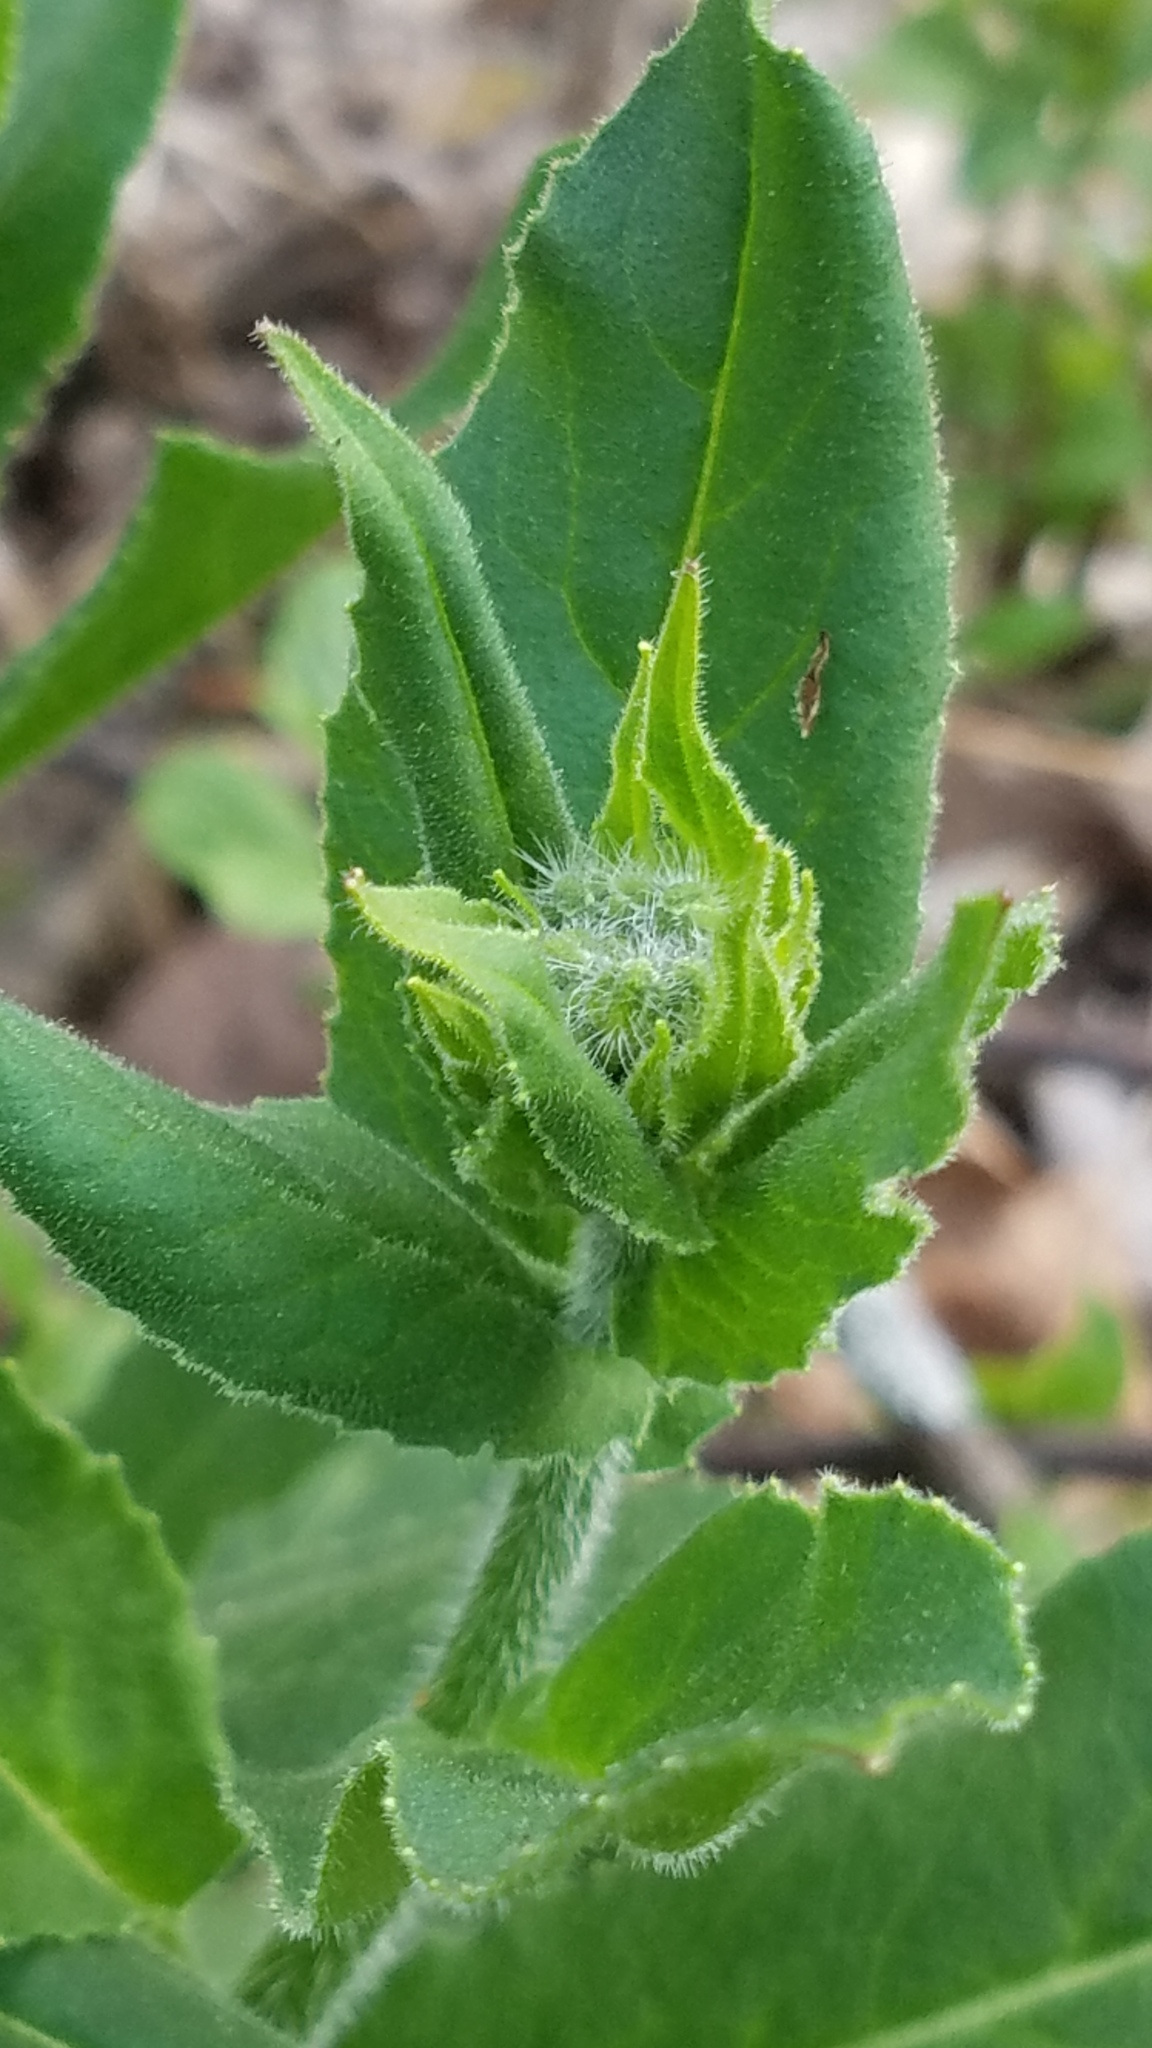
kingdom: Plantae
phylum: Tracheophyta
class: Magnoliopsida
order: Brassicales
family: Brassicaceae
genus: Hesperis
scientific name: Hesperis matronalis
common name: Dame's-violet
